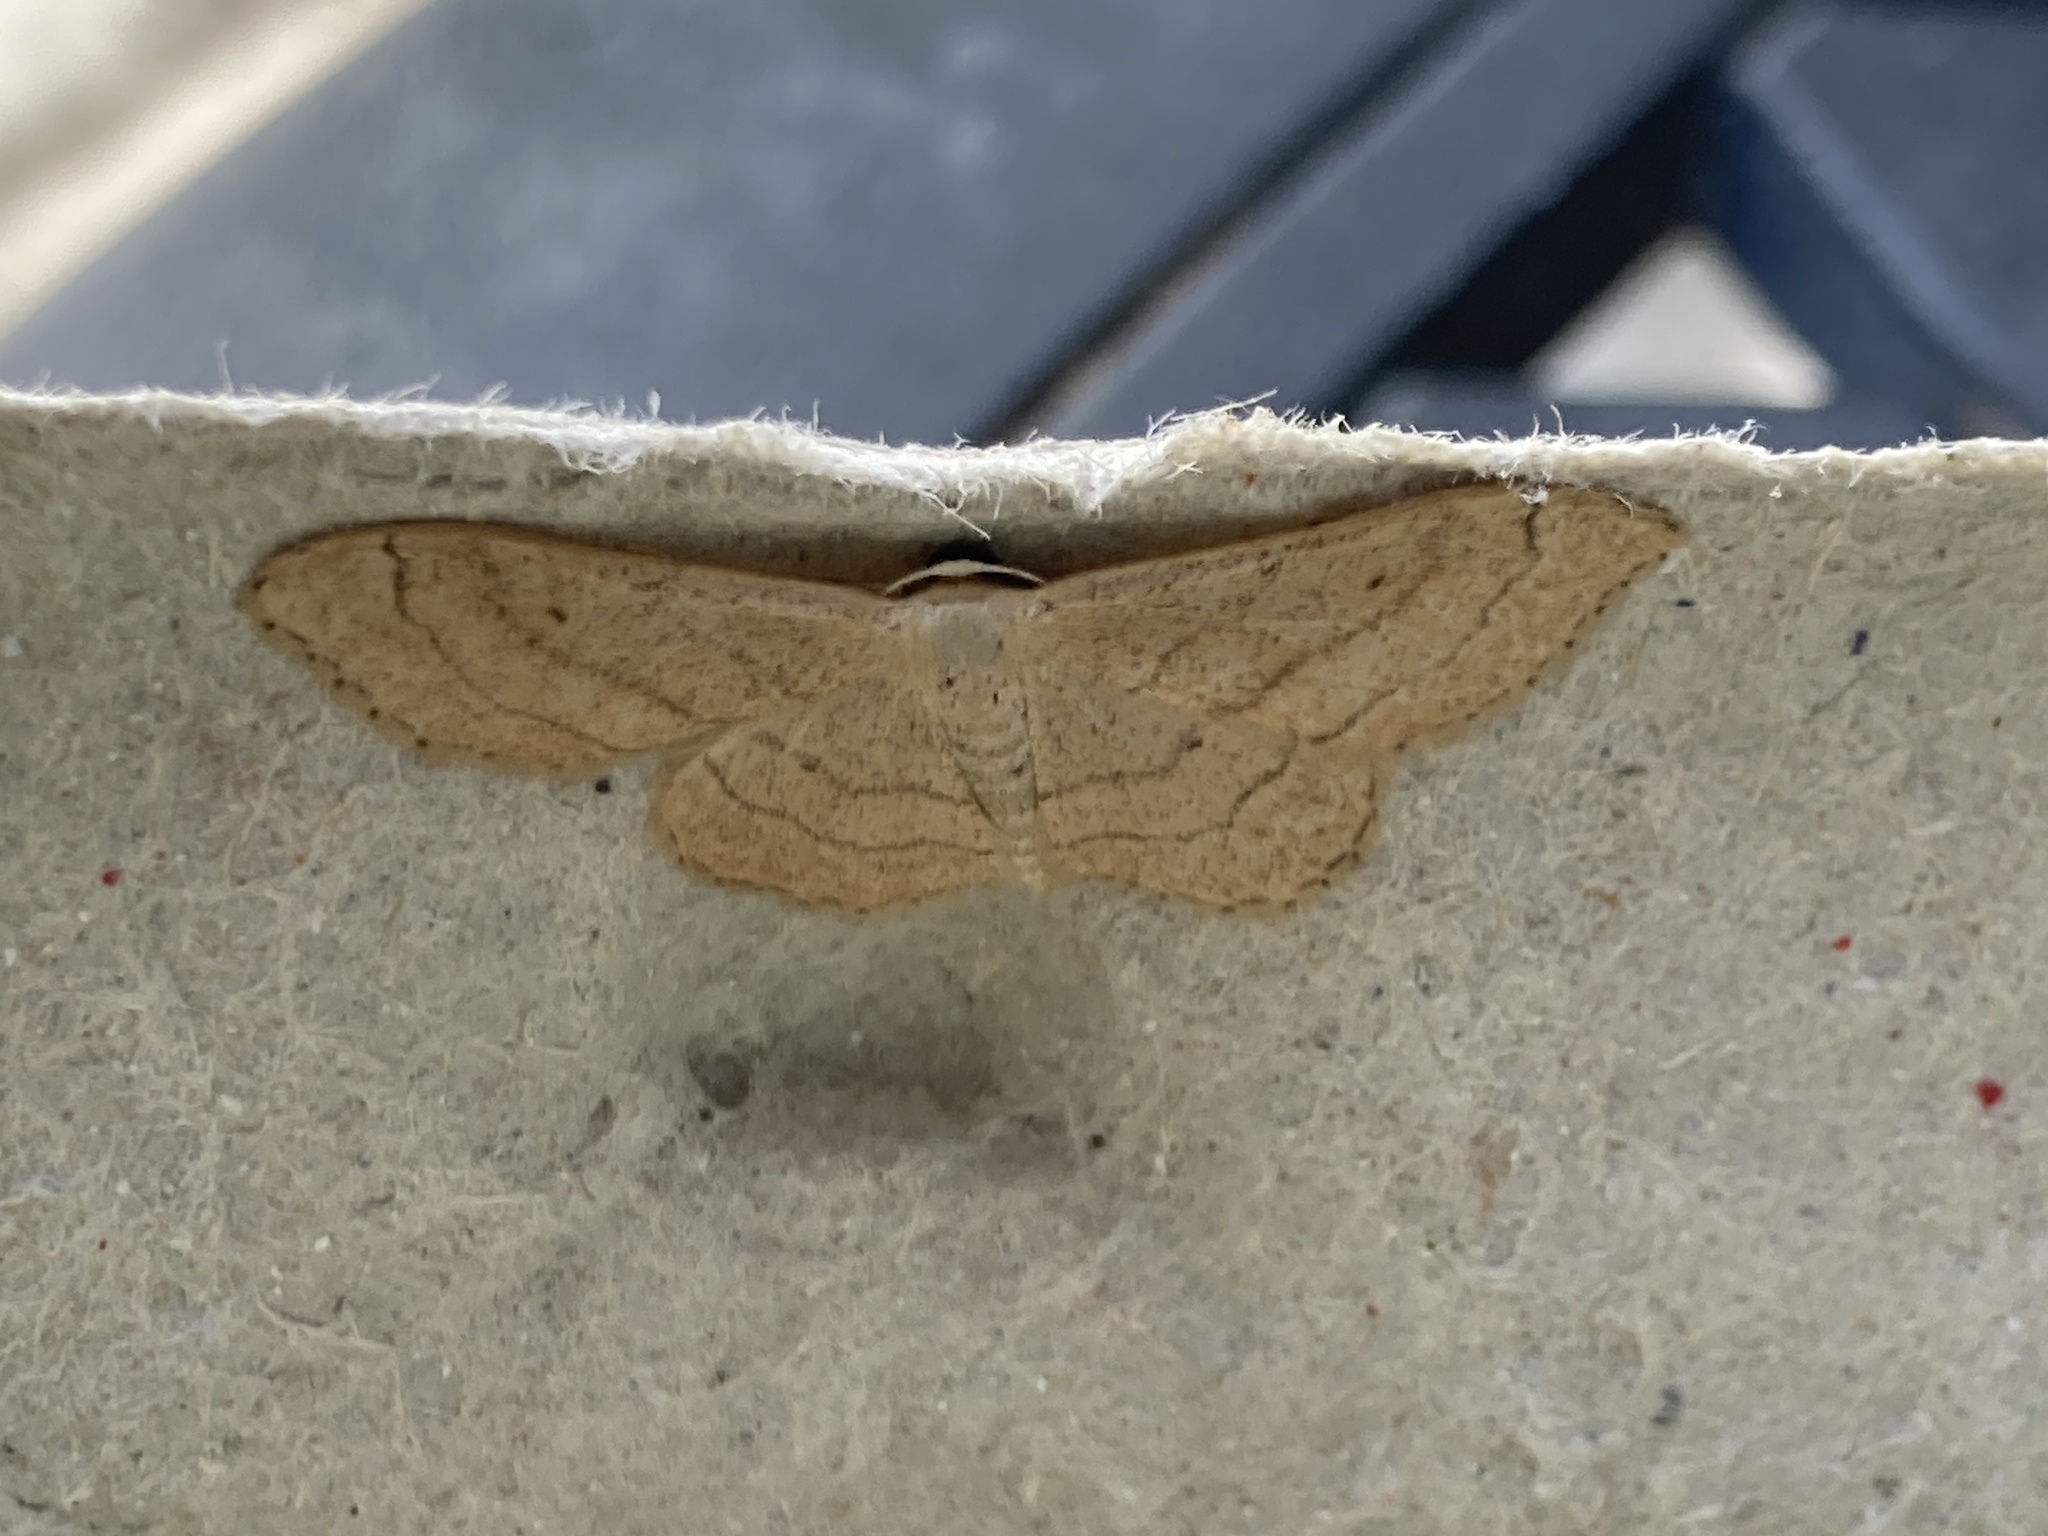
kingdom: Animalia
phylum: Arthropoda
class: Insecta
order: Lepidoptera
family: Geometridae
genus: Idaea
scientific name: Idaea aversata
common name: Riband wave
